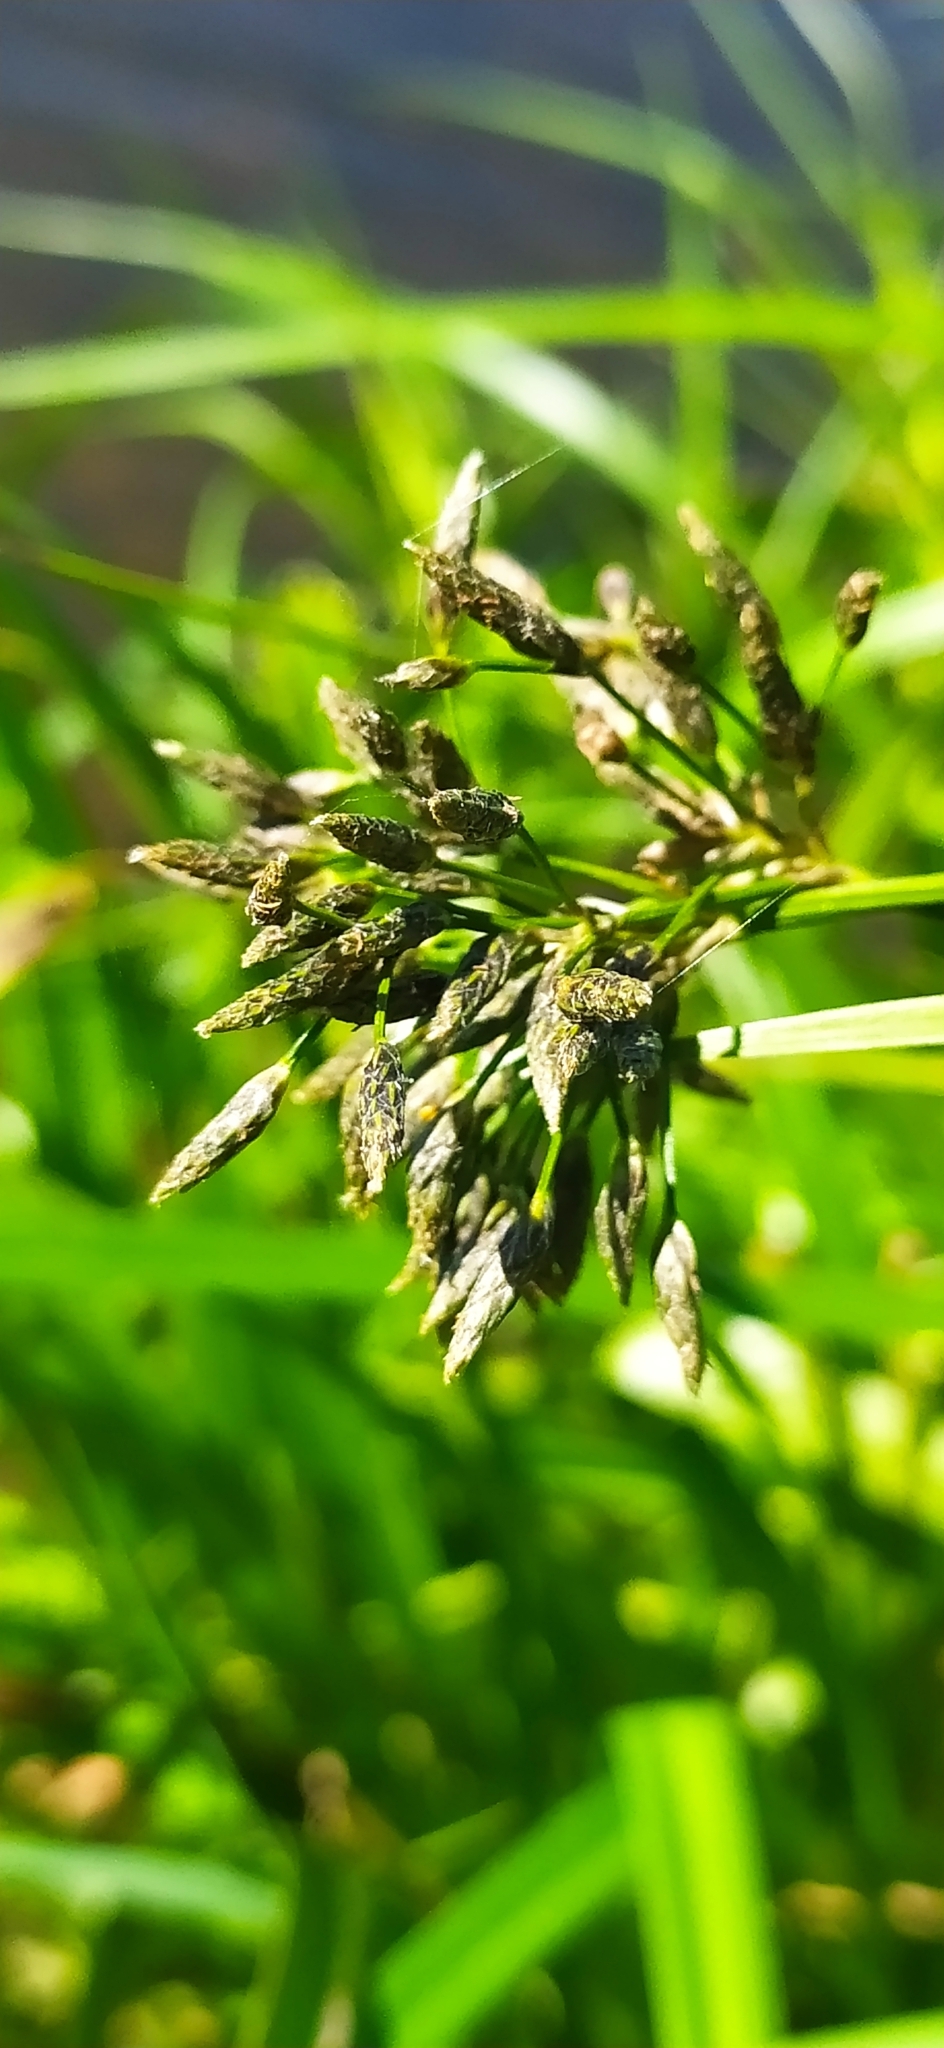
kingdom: Plantae
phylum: Tracheophyta
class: Liliopsida
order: Poales
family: Cyperaceae
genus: Scirpus
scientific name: Scirpus radicans
